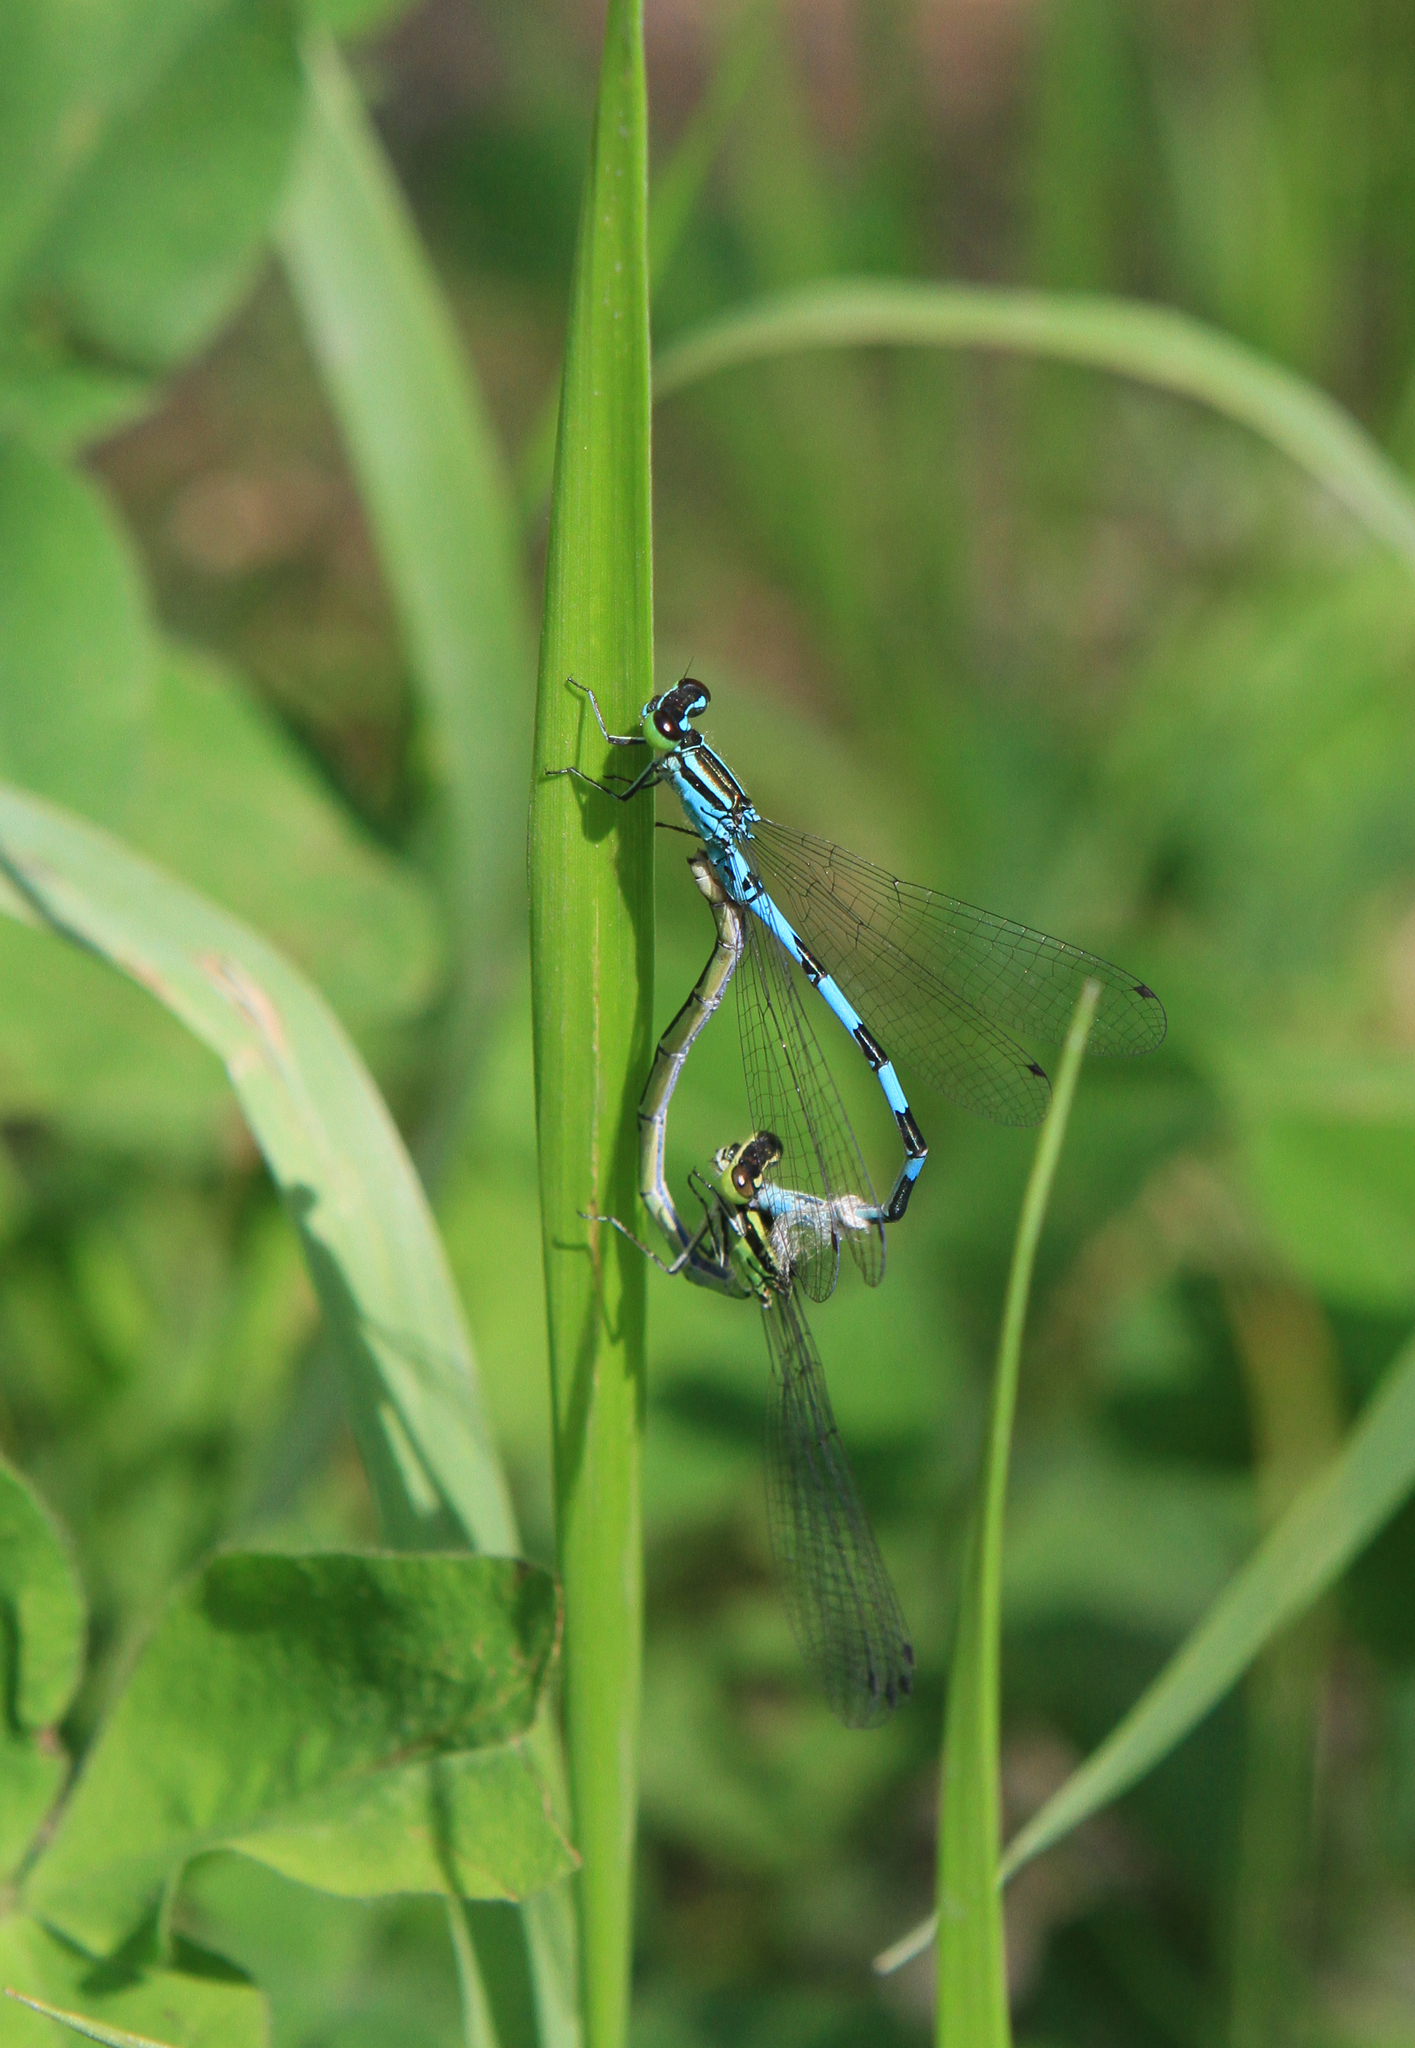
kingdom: Animalia
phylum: Arthropoda
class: Insecta
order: Odonata
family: Coenagrionidae
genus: Coenagrion
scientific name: Coenagrion hastulatum
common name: Spearhead bluet
